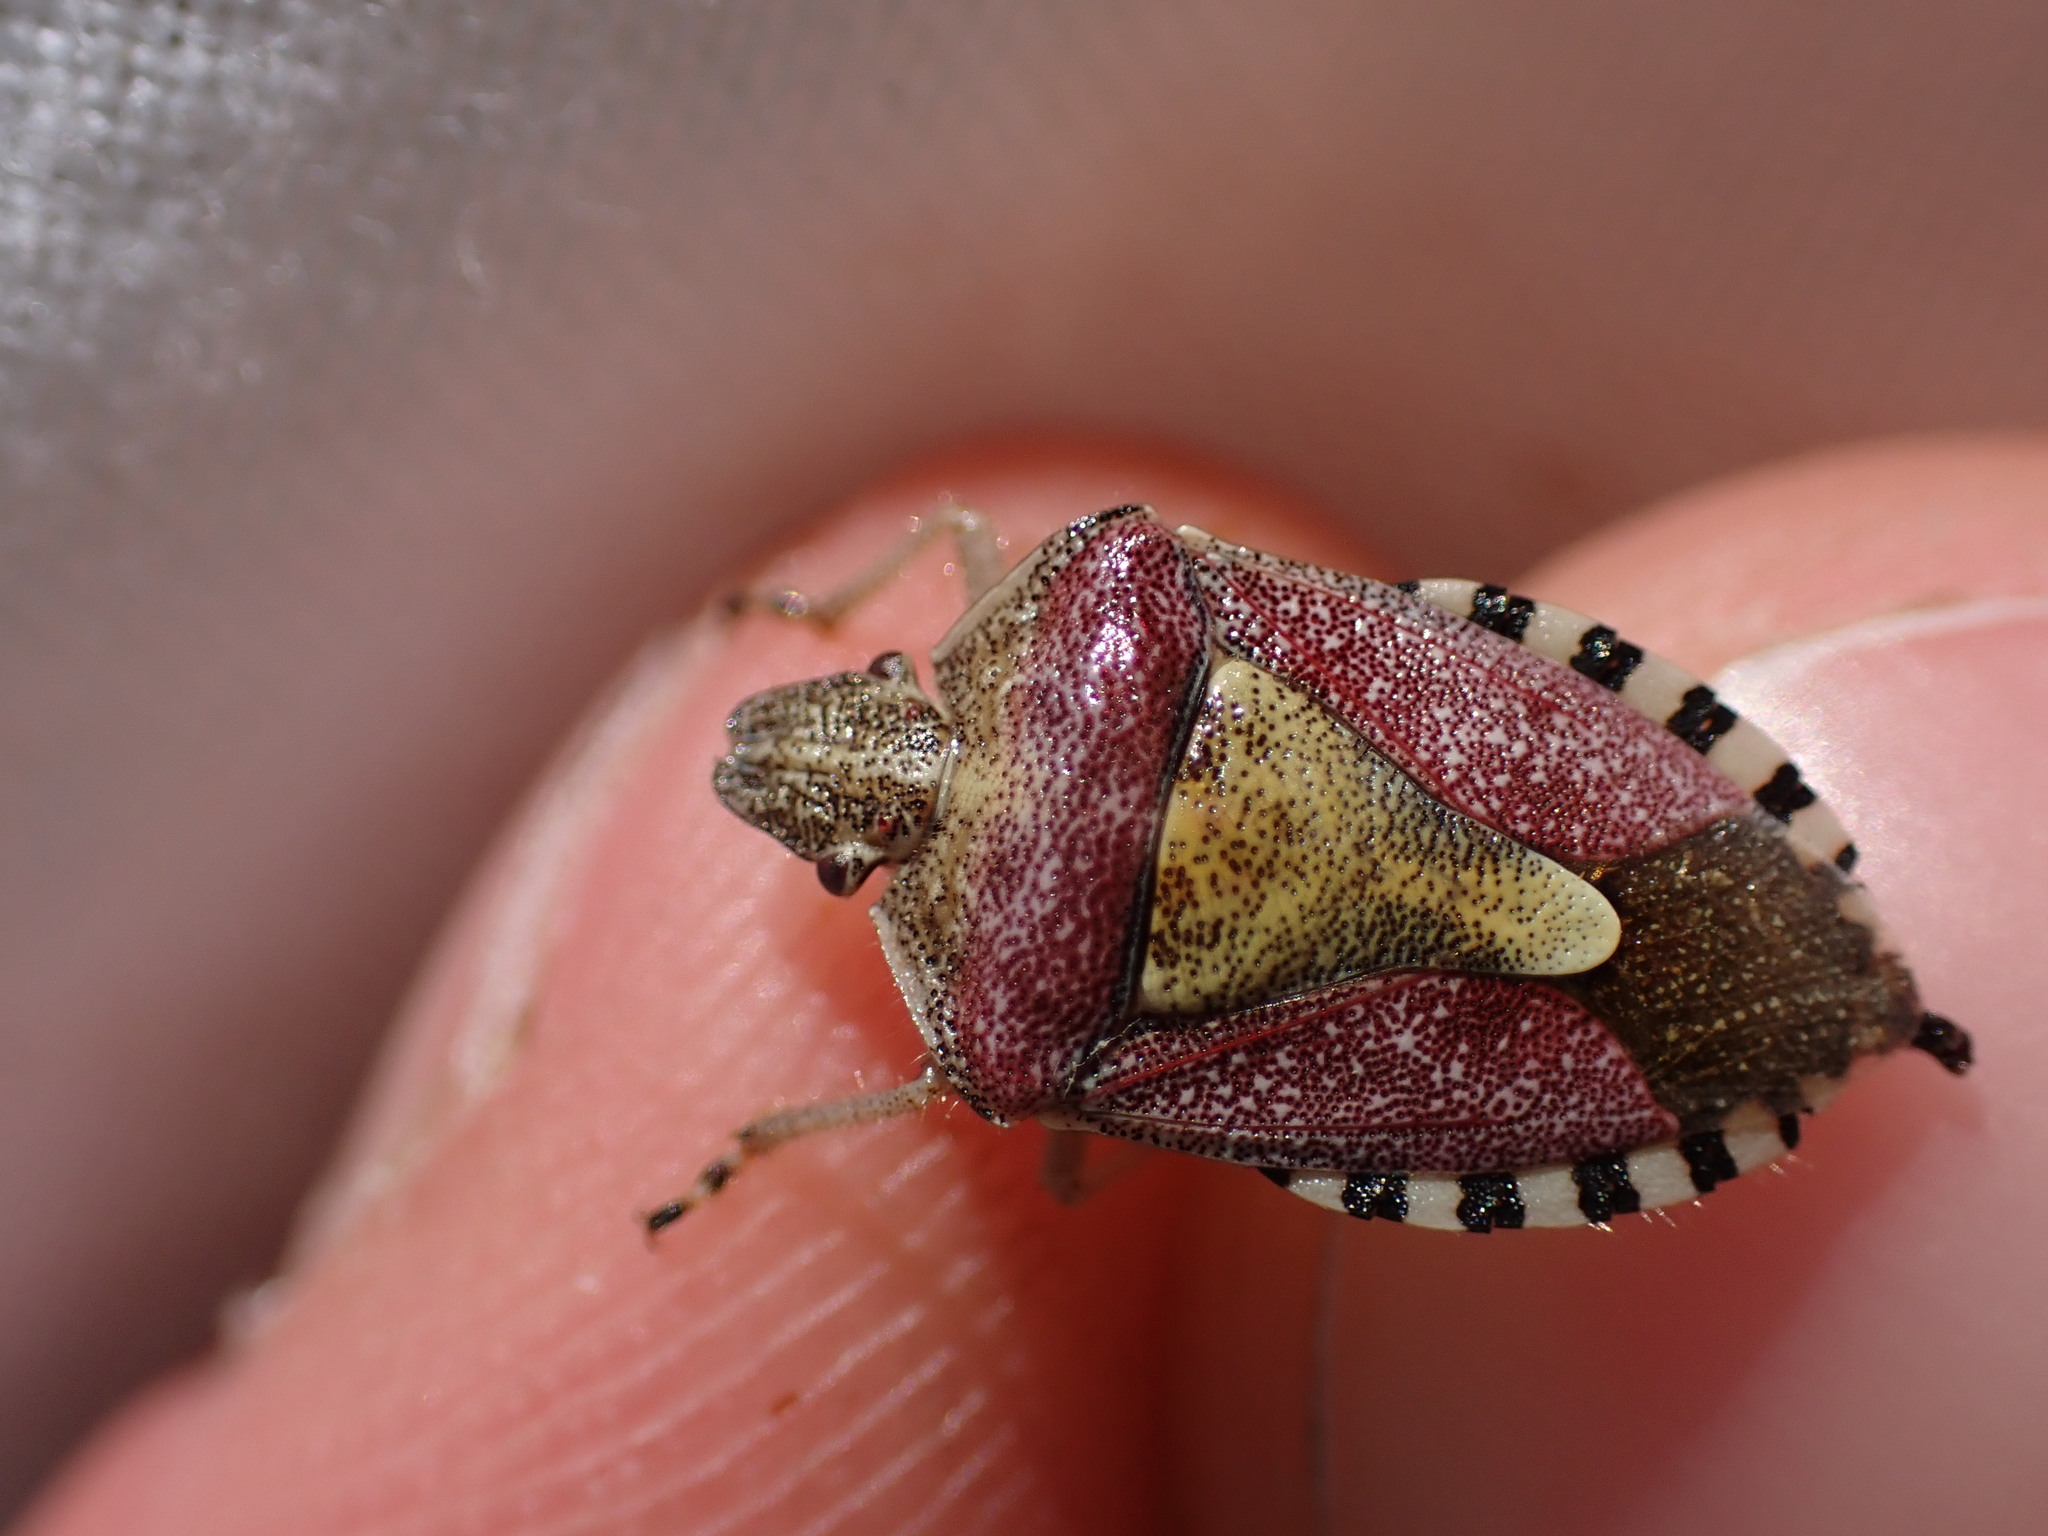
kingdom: Animalia
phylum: Arthropoda
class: Insecta
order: Hemiptera
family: Pentatomidae
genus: Dolycoris
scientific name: Dolycoris baccarum
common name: Sloe bug
